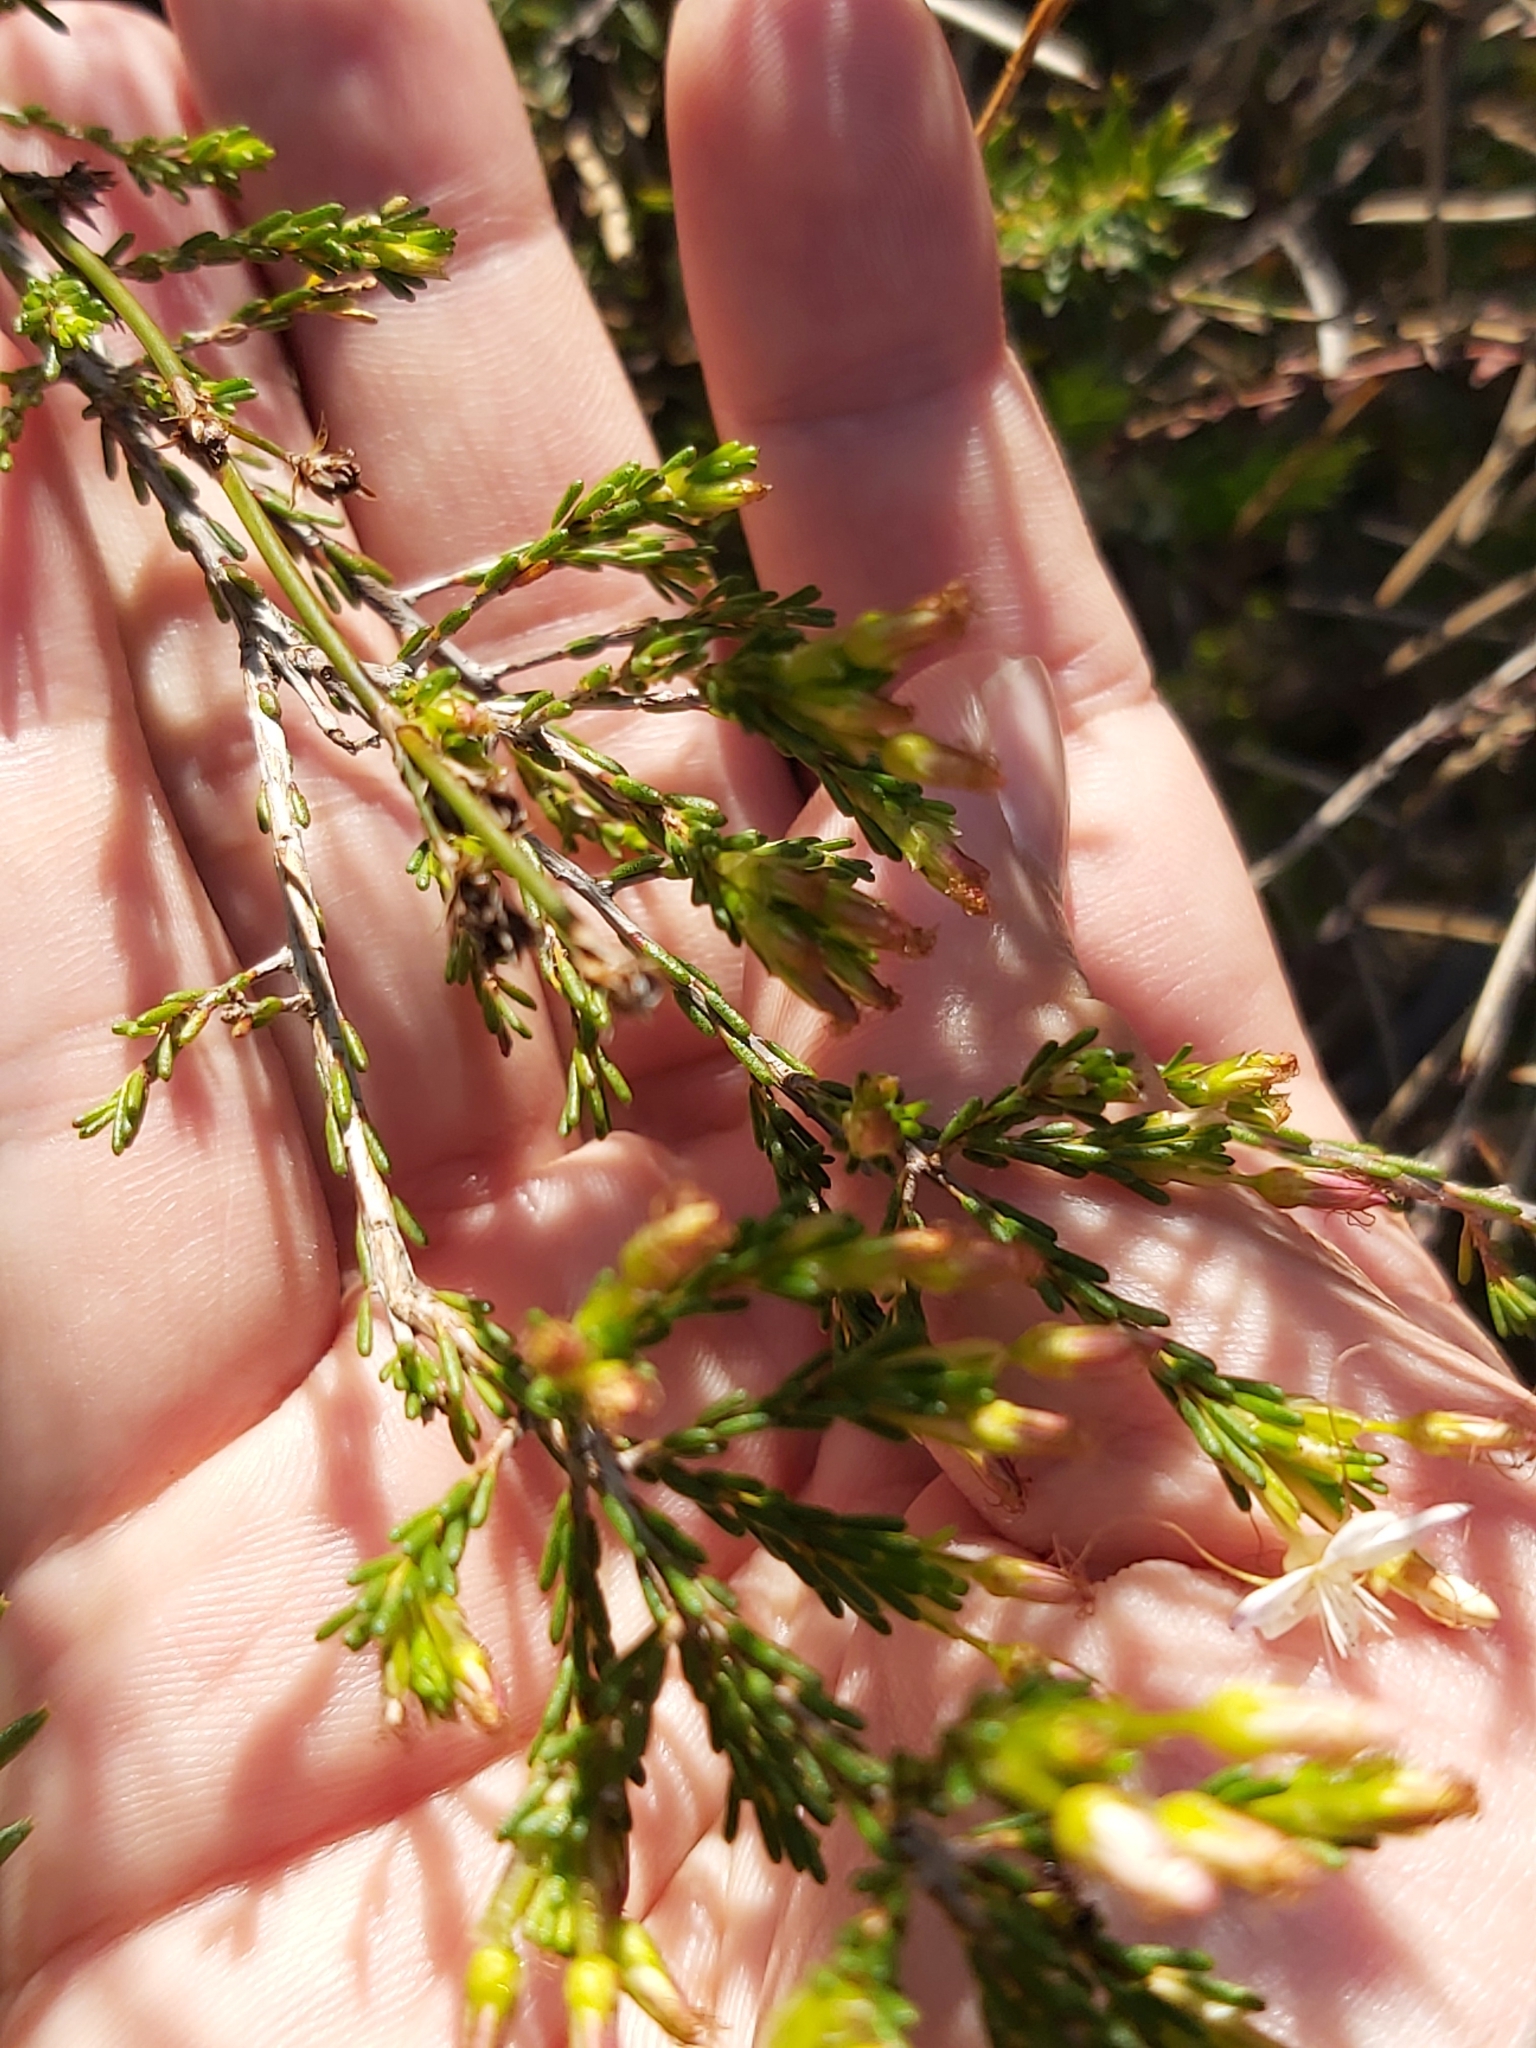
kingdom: Plantae
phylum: Tracheophyta
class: Magnoliopsida
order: Myrtales
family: Myrtaceae
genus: Calytrix
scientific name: Calytrix tetragona
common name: Common fringe myrtle
